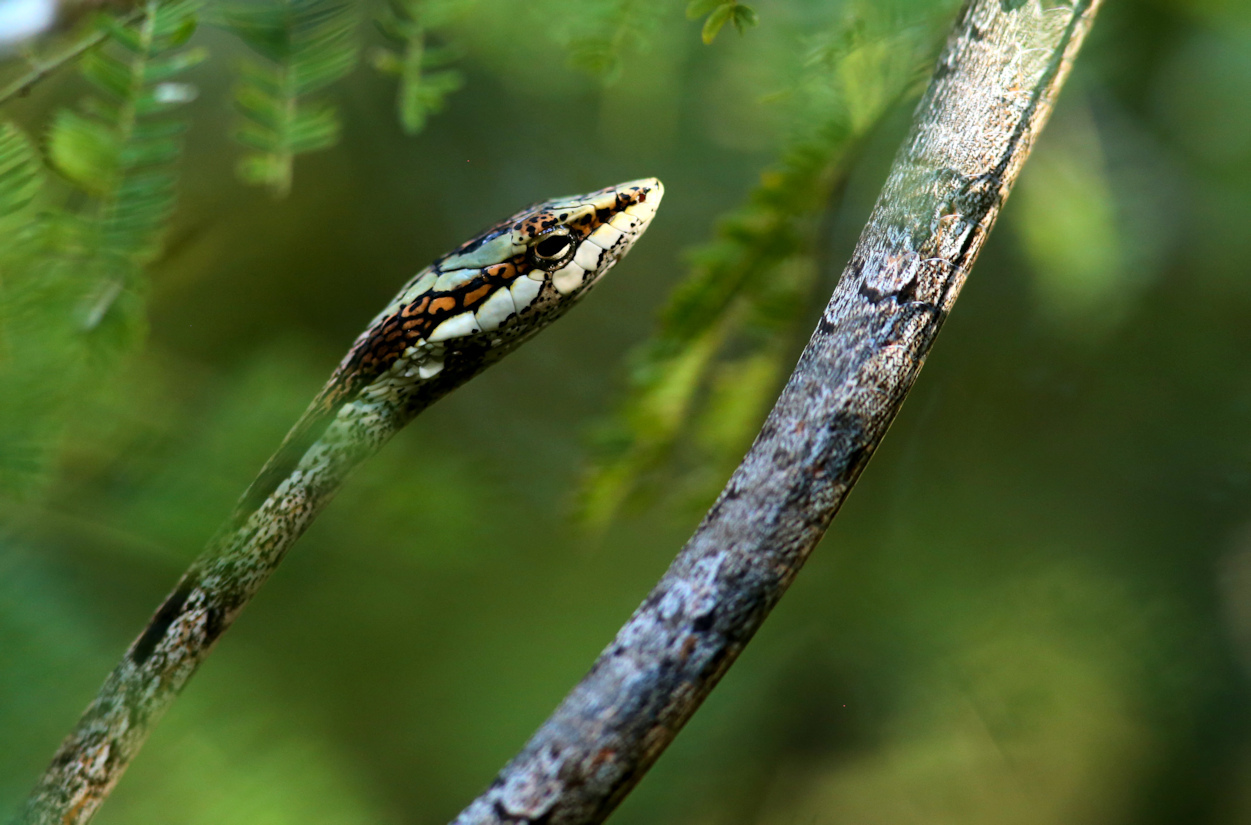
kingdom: Animalia
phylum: Chordata
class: Squamata
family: Colubridae
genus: Thelotornis
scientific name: Thelotornis capensis
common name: Savanna vine snake
